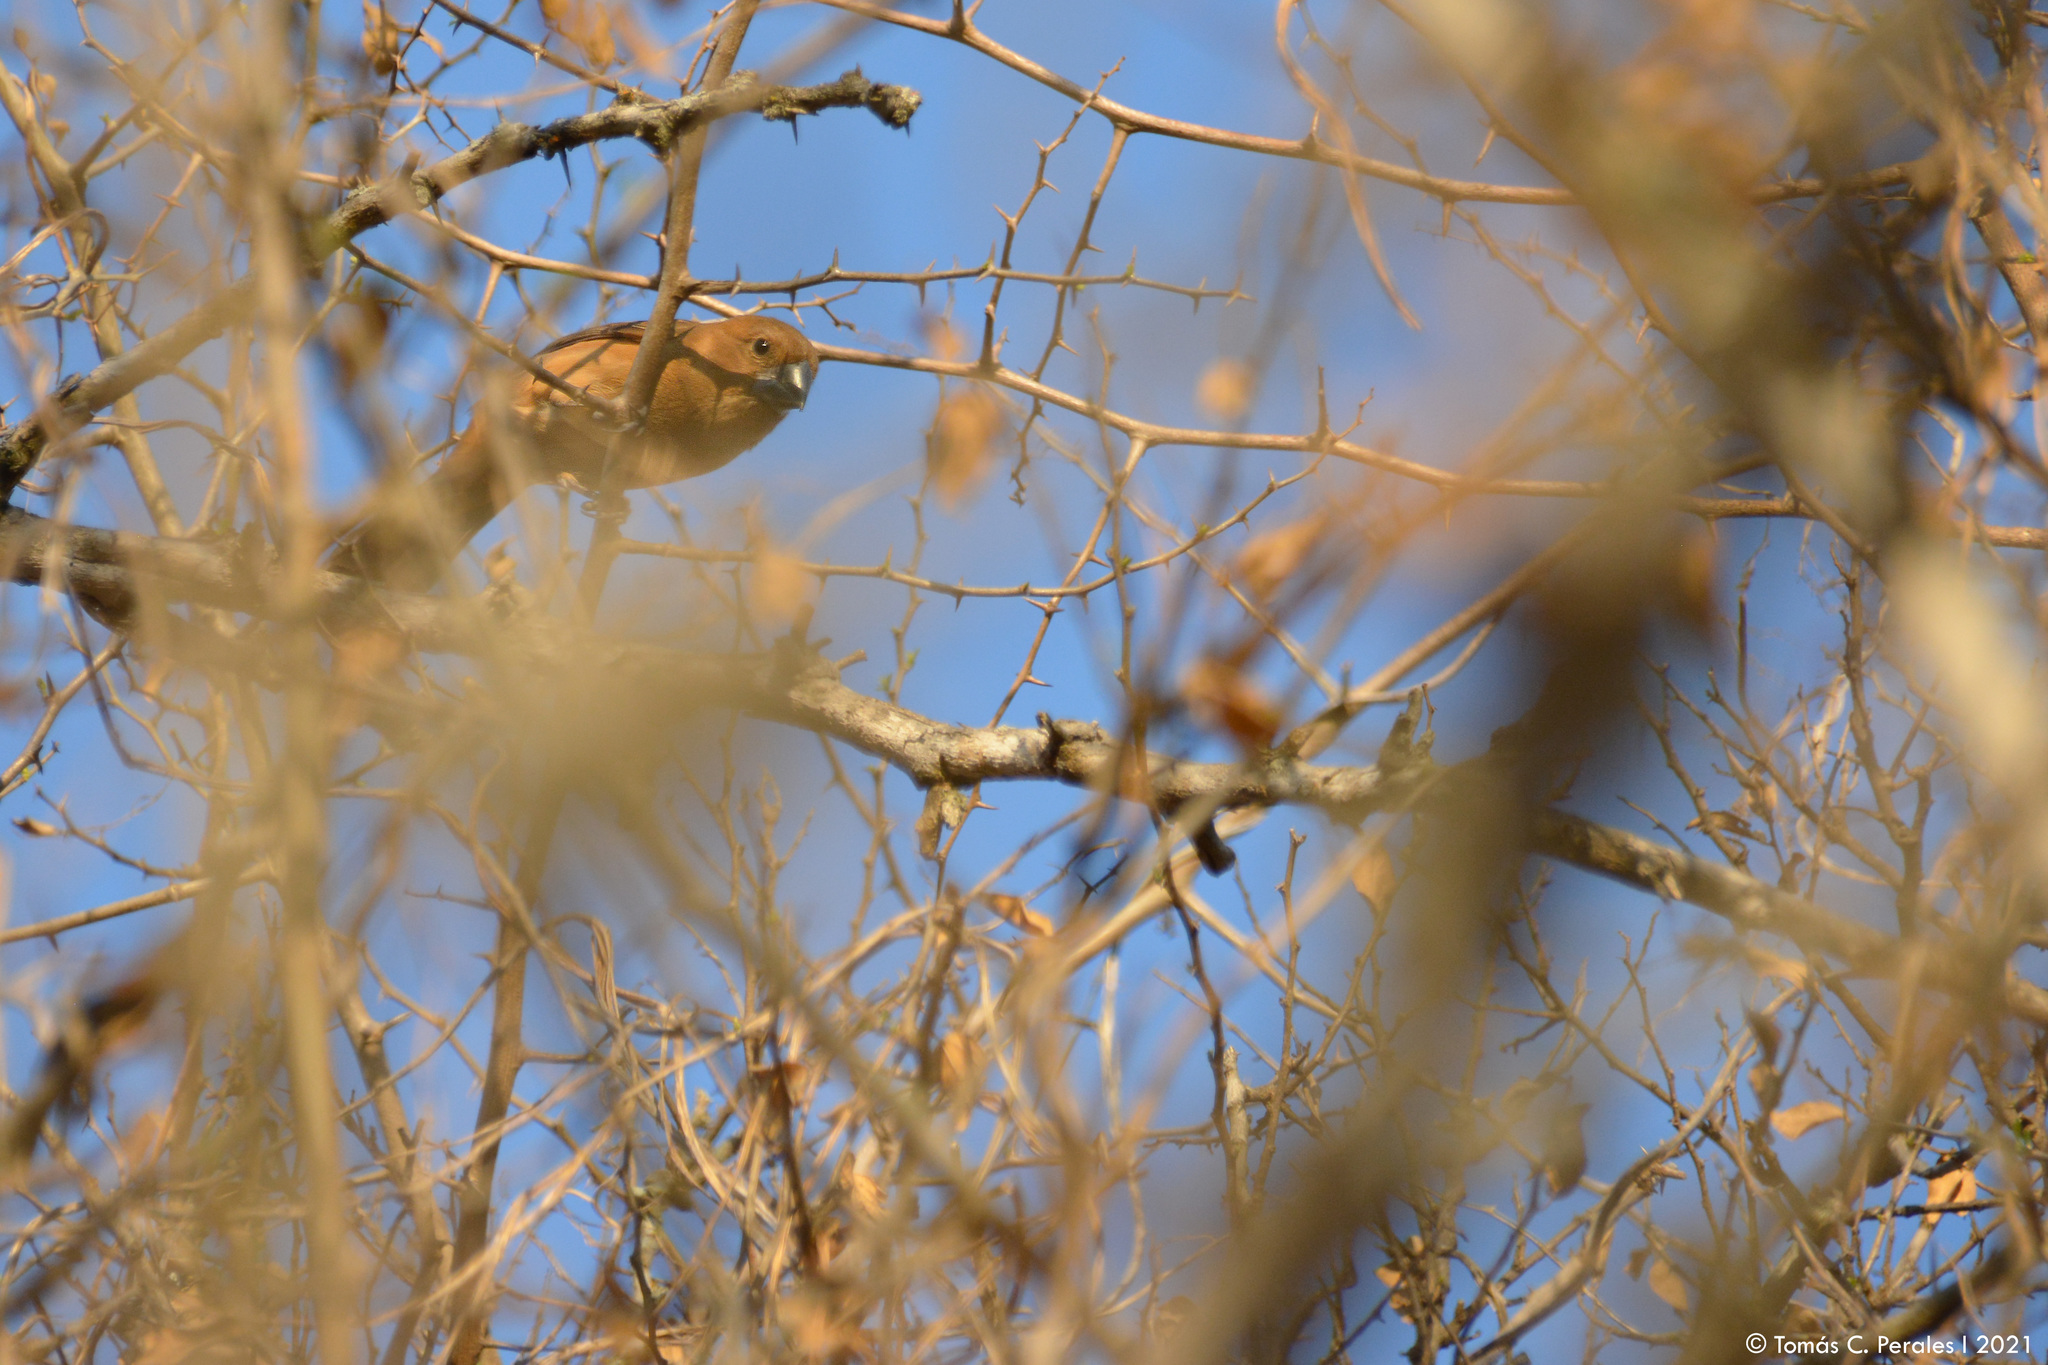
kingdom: Animalia
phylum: Chordata
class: Aves
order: Passeriformes
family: Cardinalidae
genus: Cyanoloxia
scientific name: Cyanoloxia brissonii
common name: Ultramarine grosbeak
